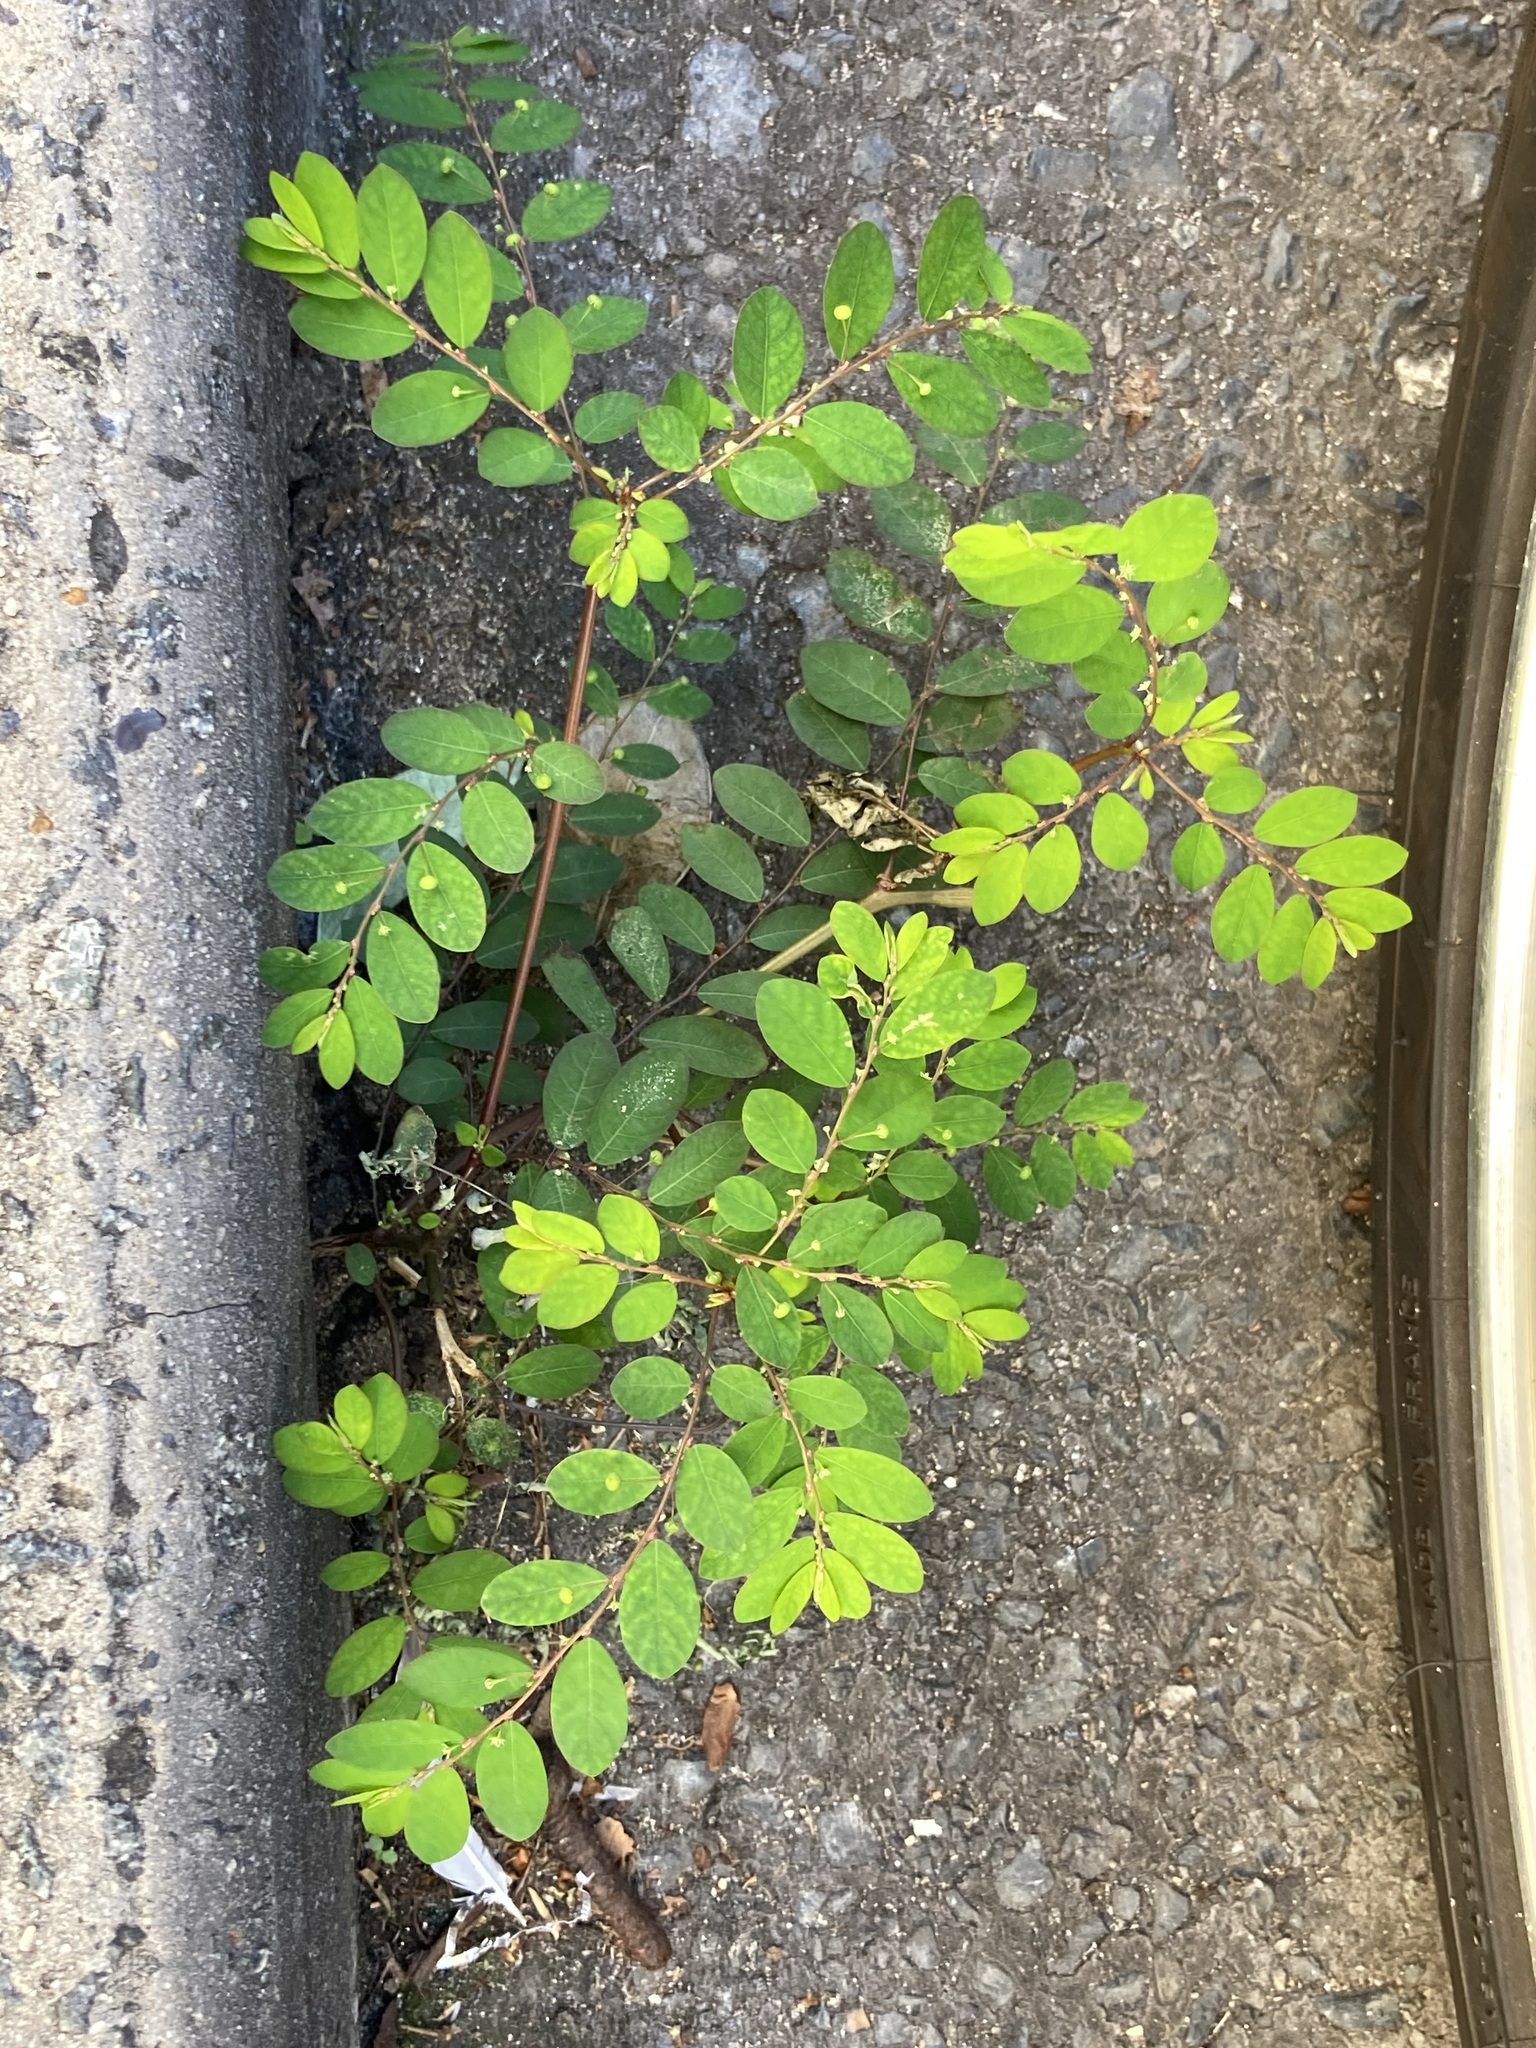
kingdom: Plantae
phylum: Tracheophyta
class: Magnoliopsida
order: Malpighiales
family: Phyllanthaceae
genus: Phyllanthus
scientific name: Phyllanthus tenellus
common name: Mascarene island leaf-flower
